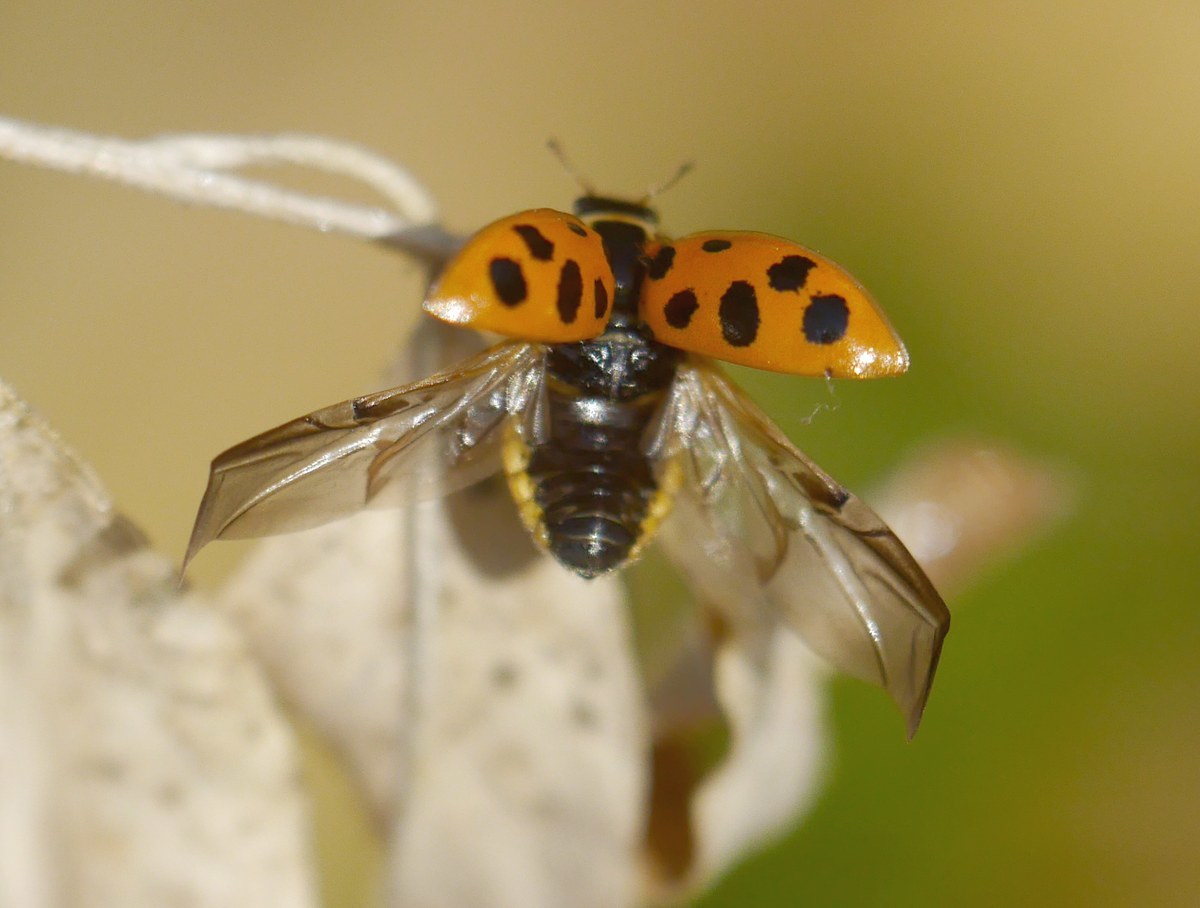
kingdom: Animalia
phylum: Arthropoda
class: Insecta
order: Coleoptera
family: Coccinellidae
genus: Hippodamia
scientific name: Hippodamia tredecimpunctata
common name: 13-spot ladybird
